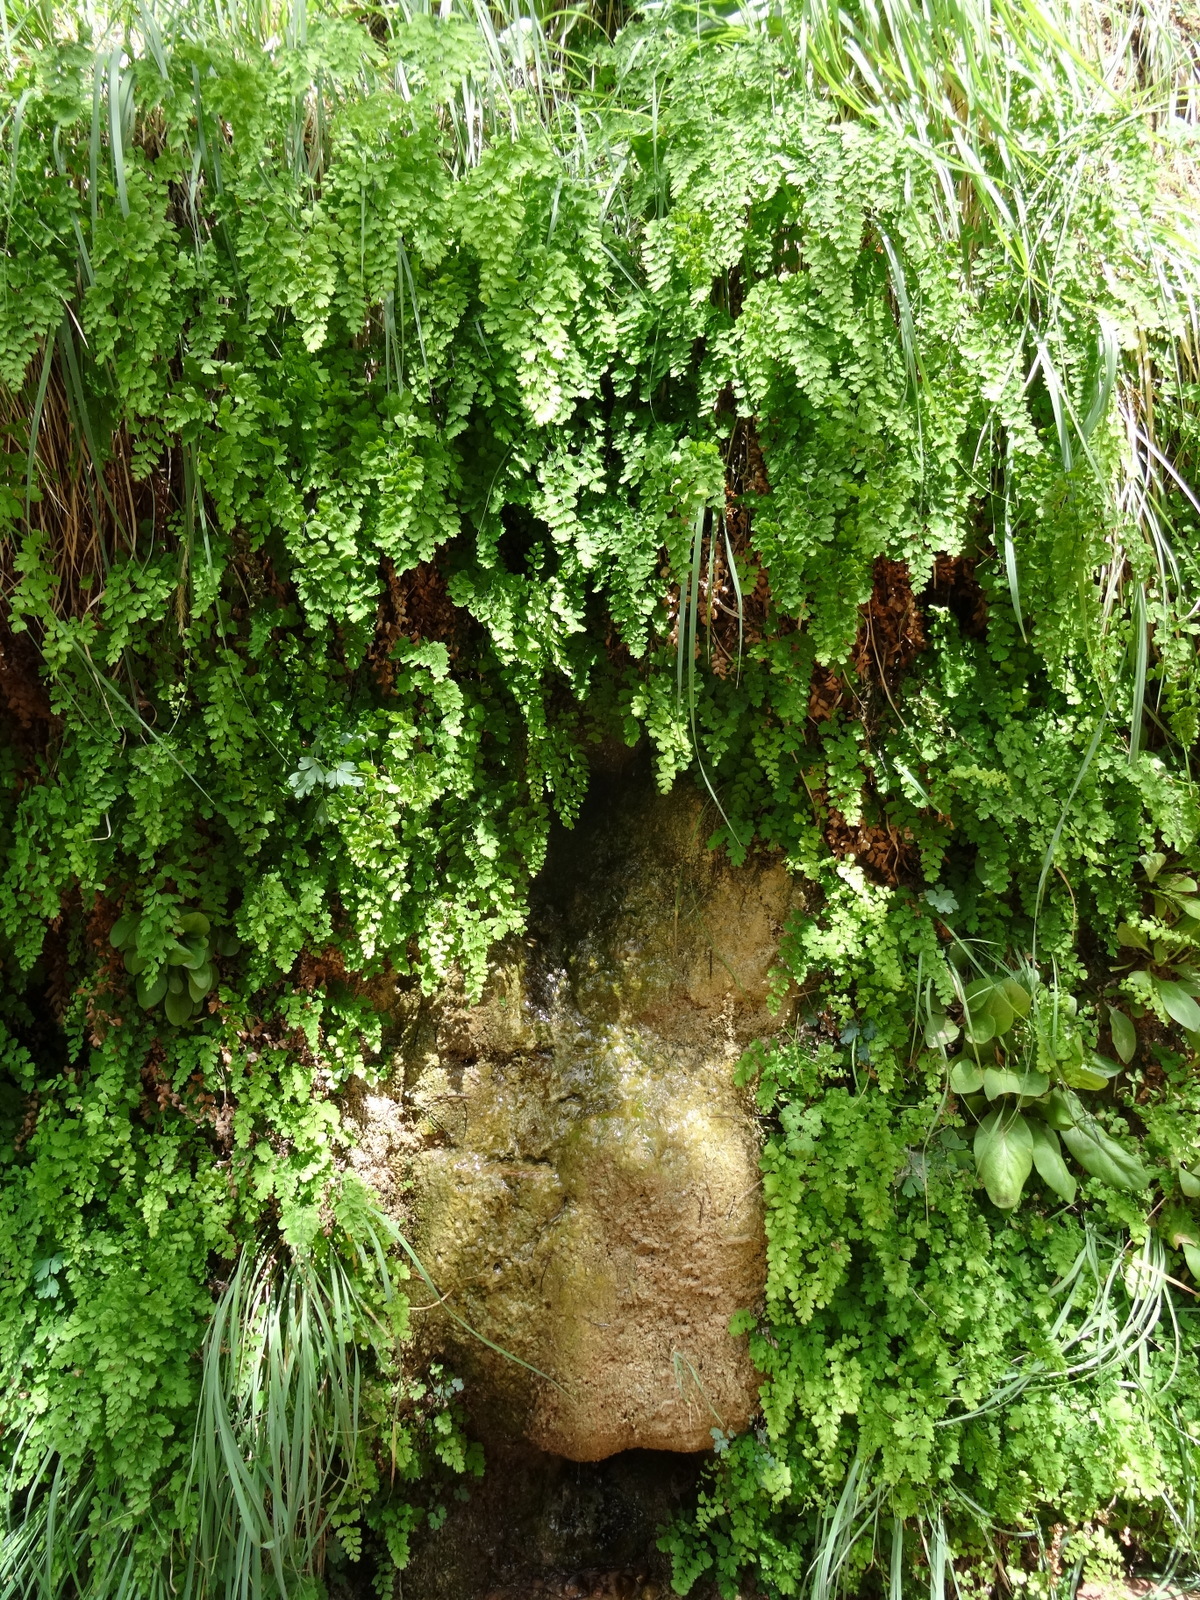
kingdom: Plantae
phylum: Tracheophyta
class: Polypodiopsida
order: Polypodiales
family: Pteridaceae
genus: Adiantum
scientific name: Adiantum capillus-veneris
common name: Maidenhair fern
